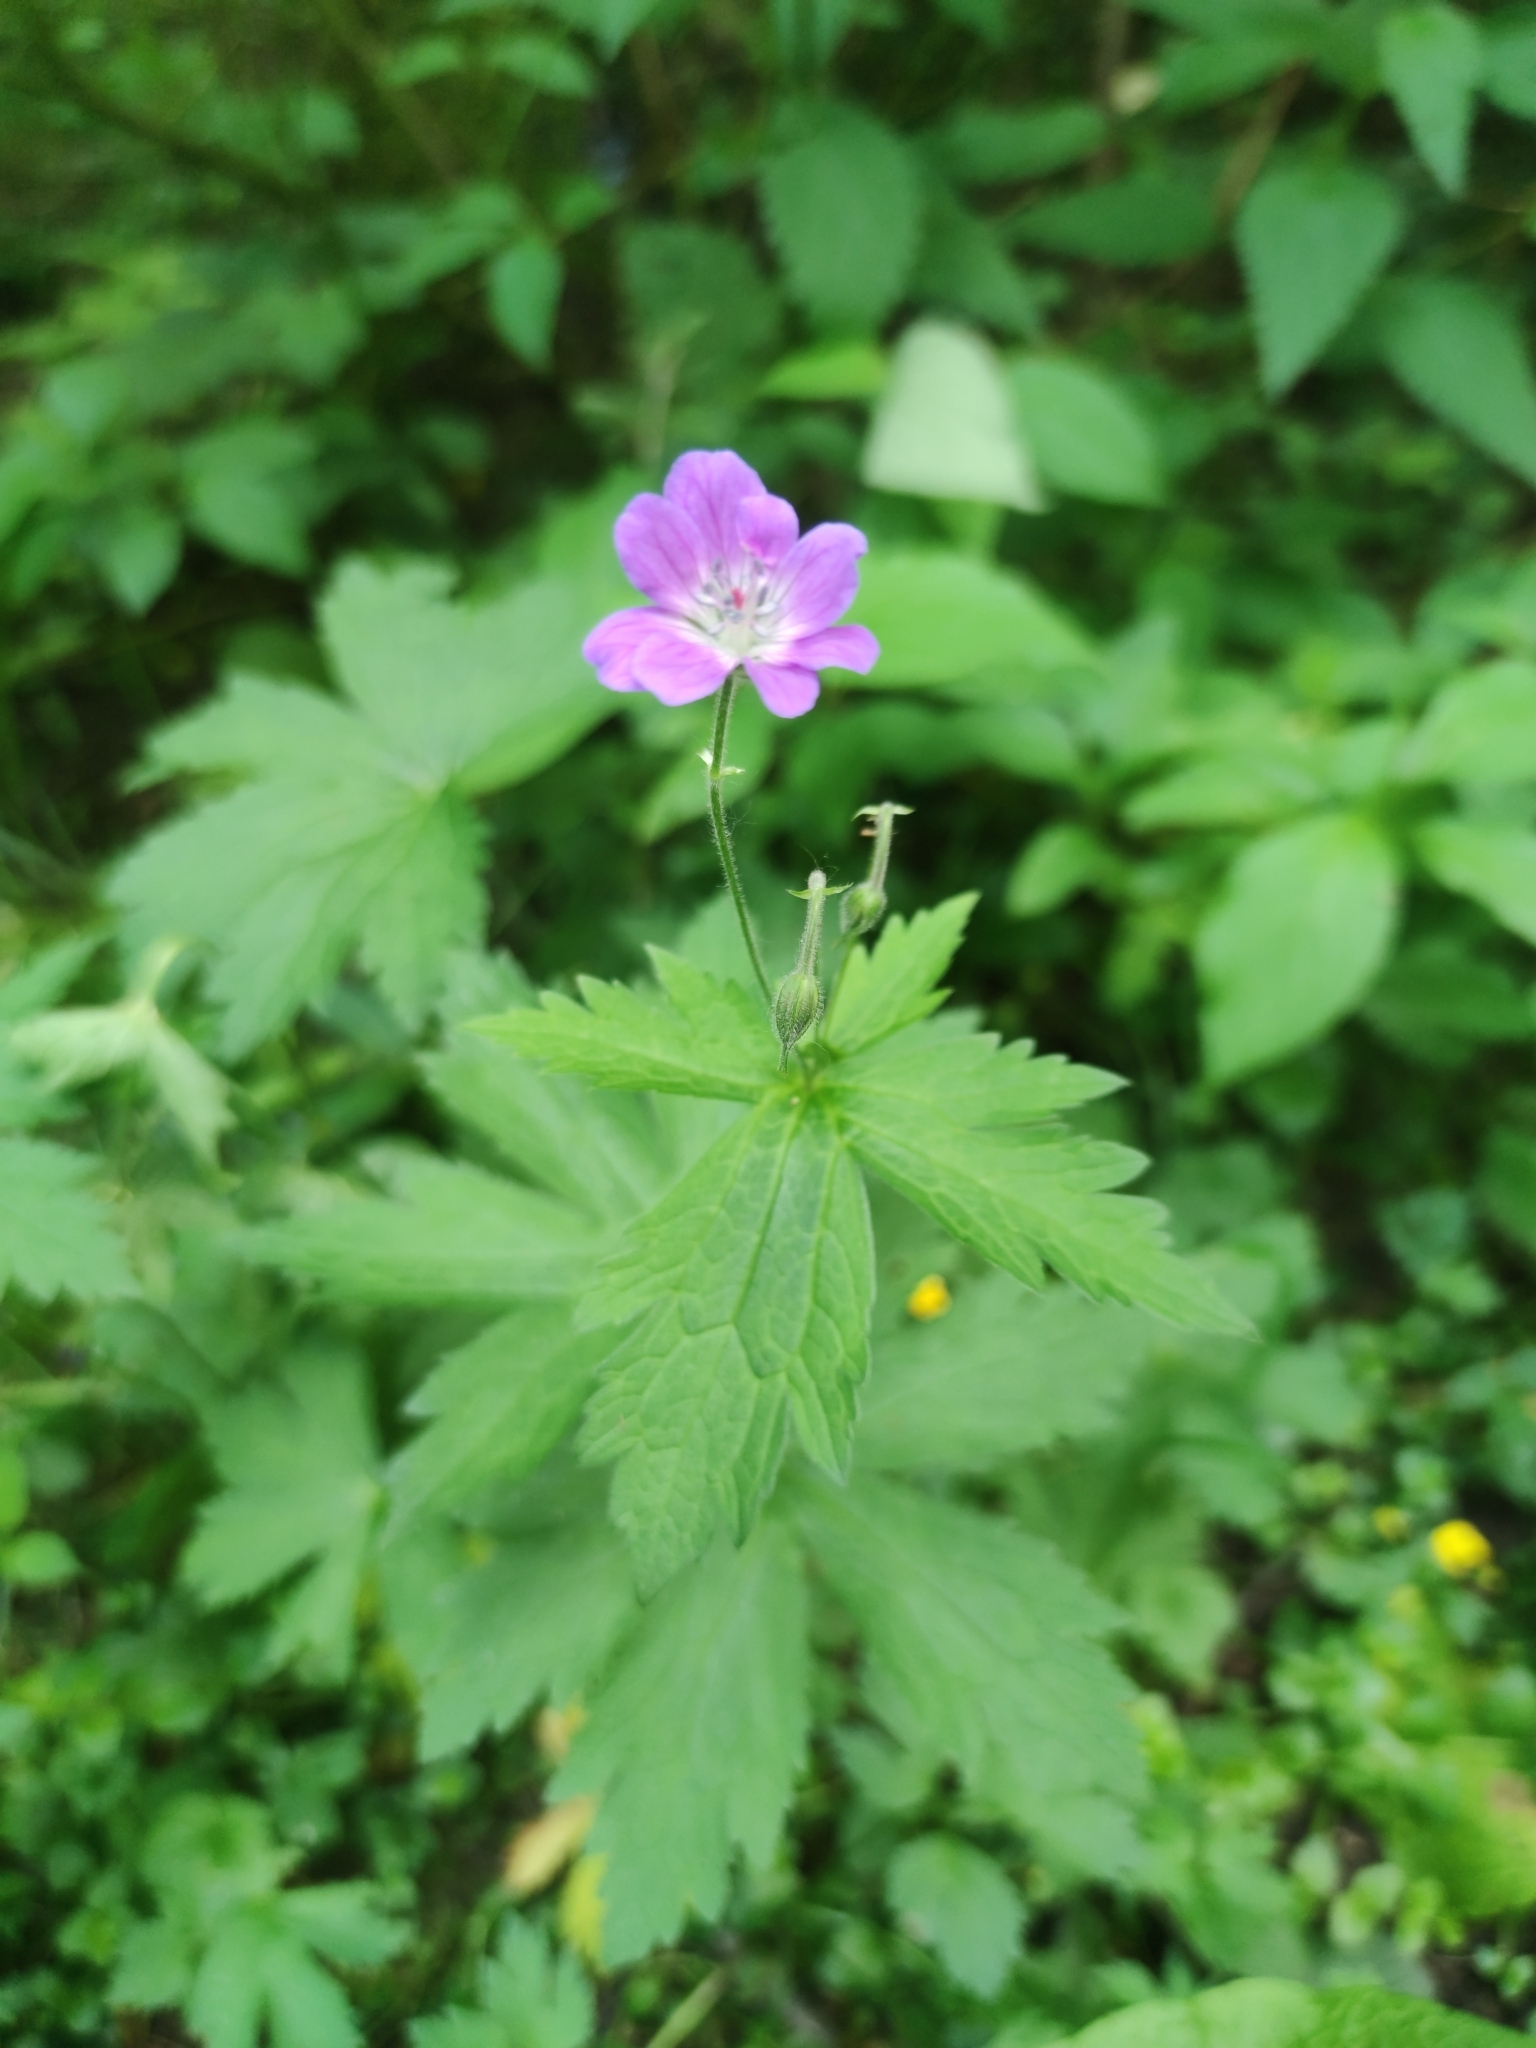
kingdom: Plantae
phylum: Tracheophyta
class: Magnoliopsida
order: Geraniales
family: Geraniaceae
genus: Geranium
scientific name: Geranium sylvaticum
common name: Wood crane's-bill
